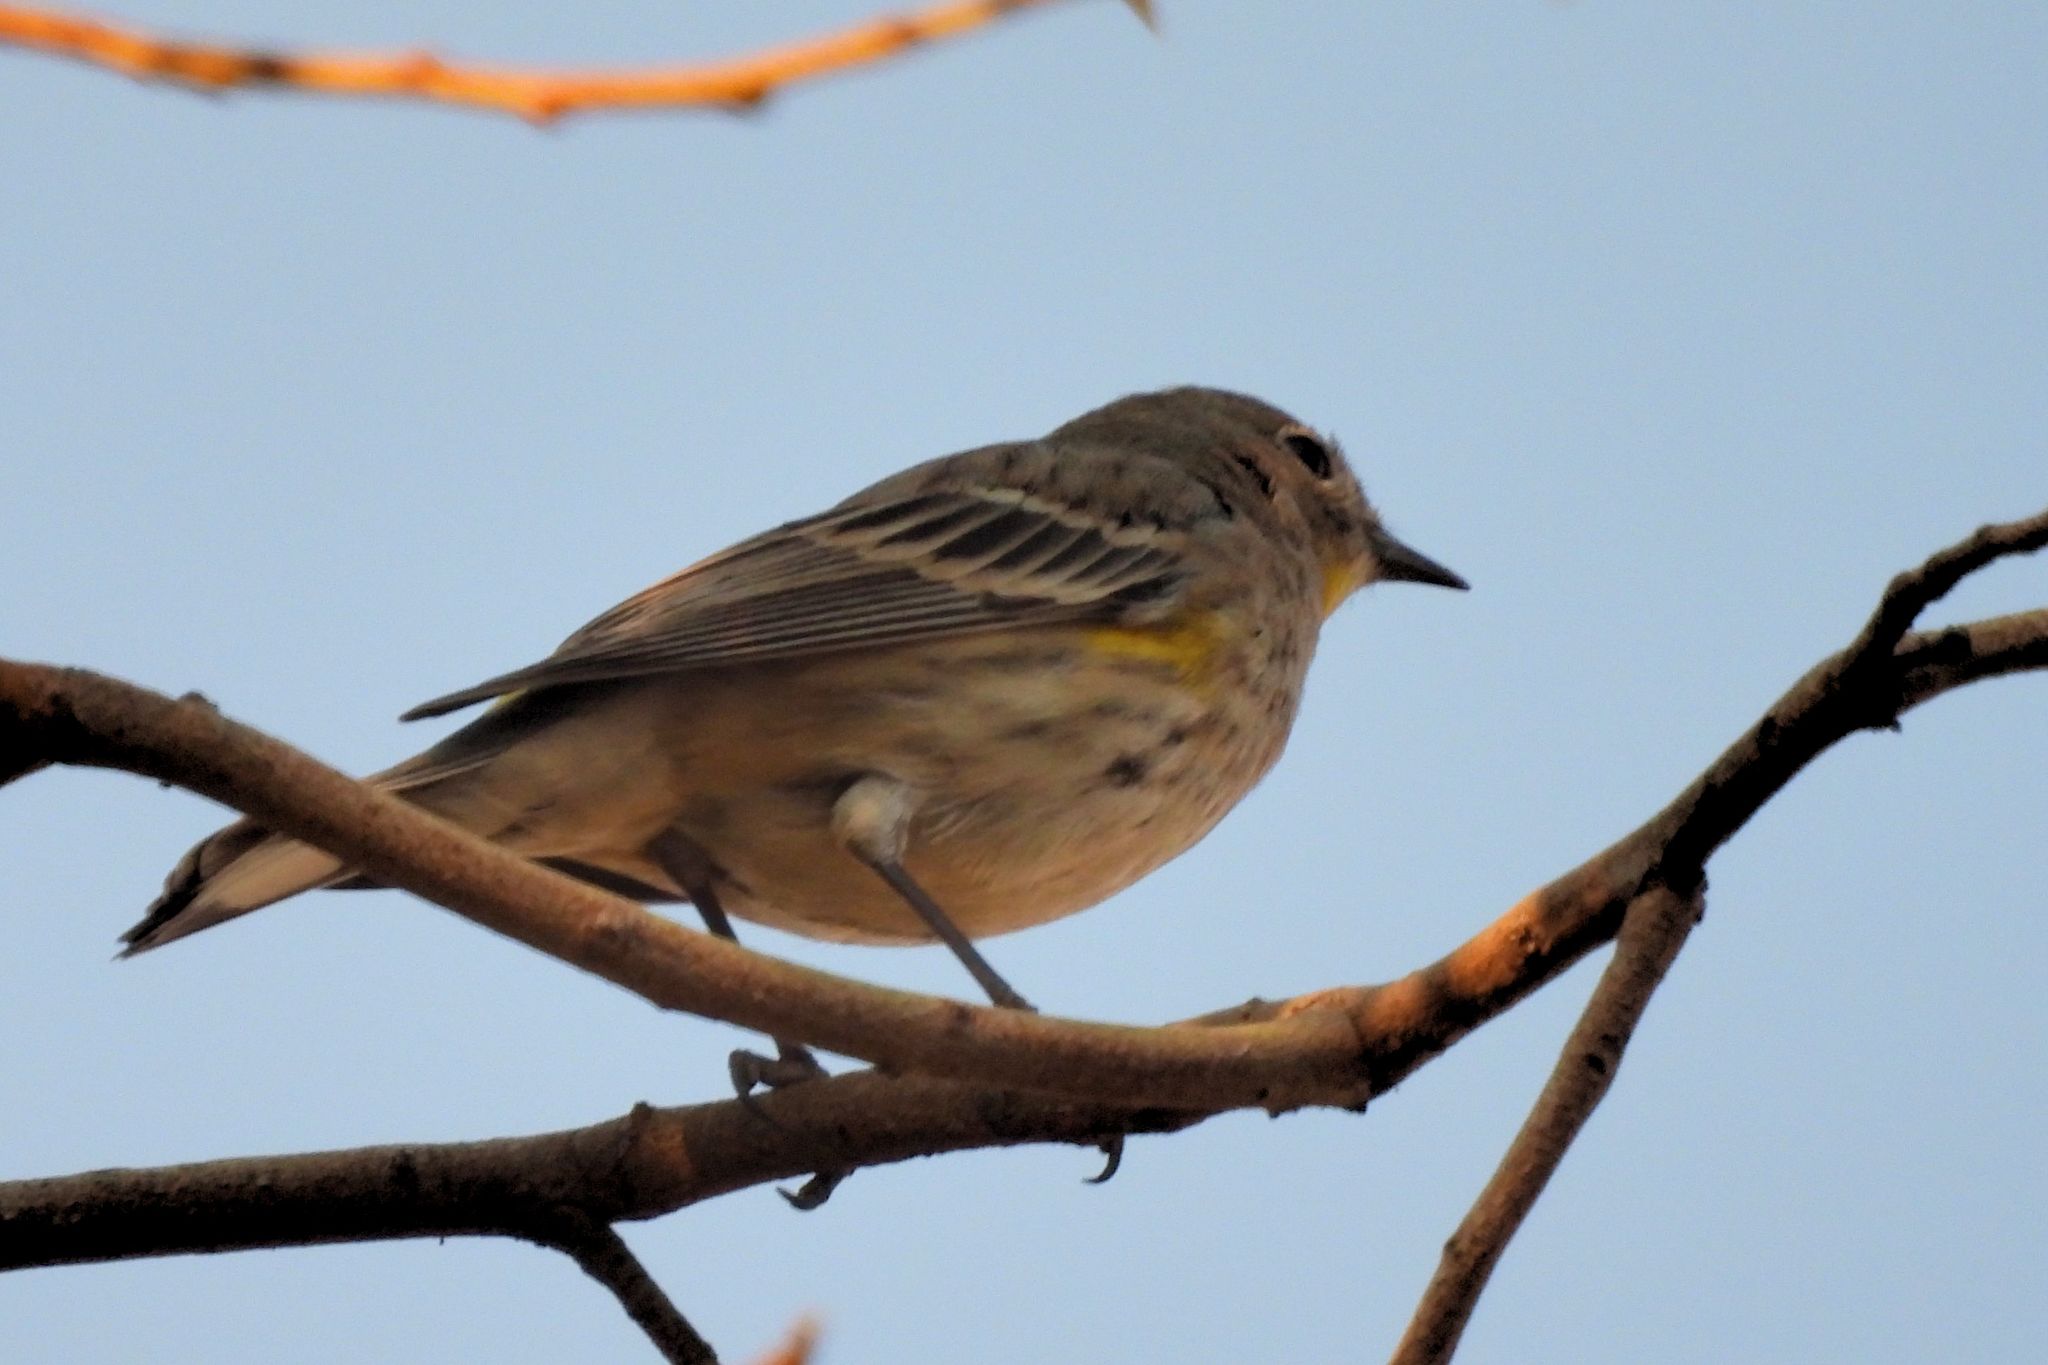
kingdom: Animalia
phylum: Chordata
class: Aves
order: Passeriformes
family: Parulidae
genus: Setophaga
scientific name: Setophaga auduboni
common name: Audubon's warbler
